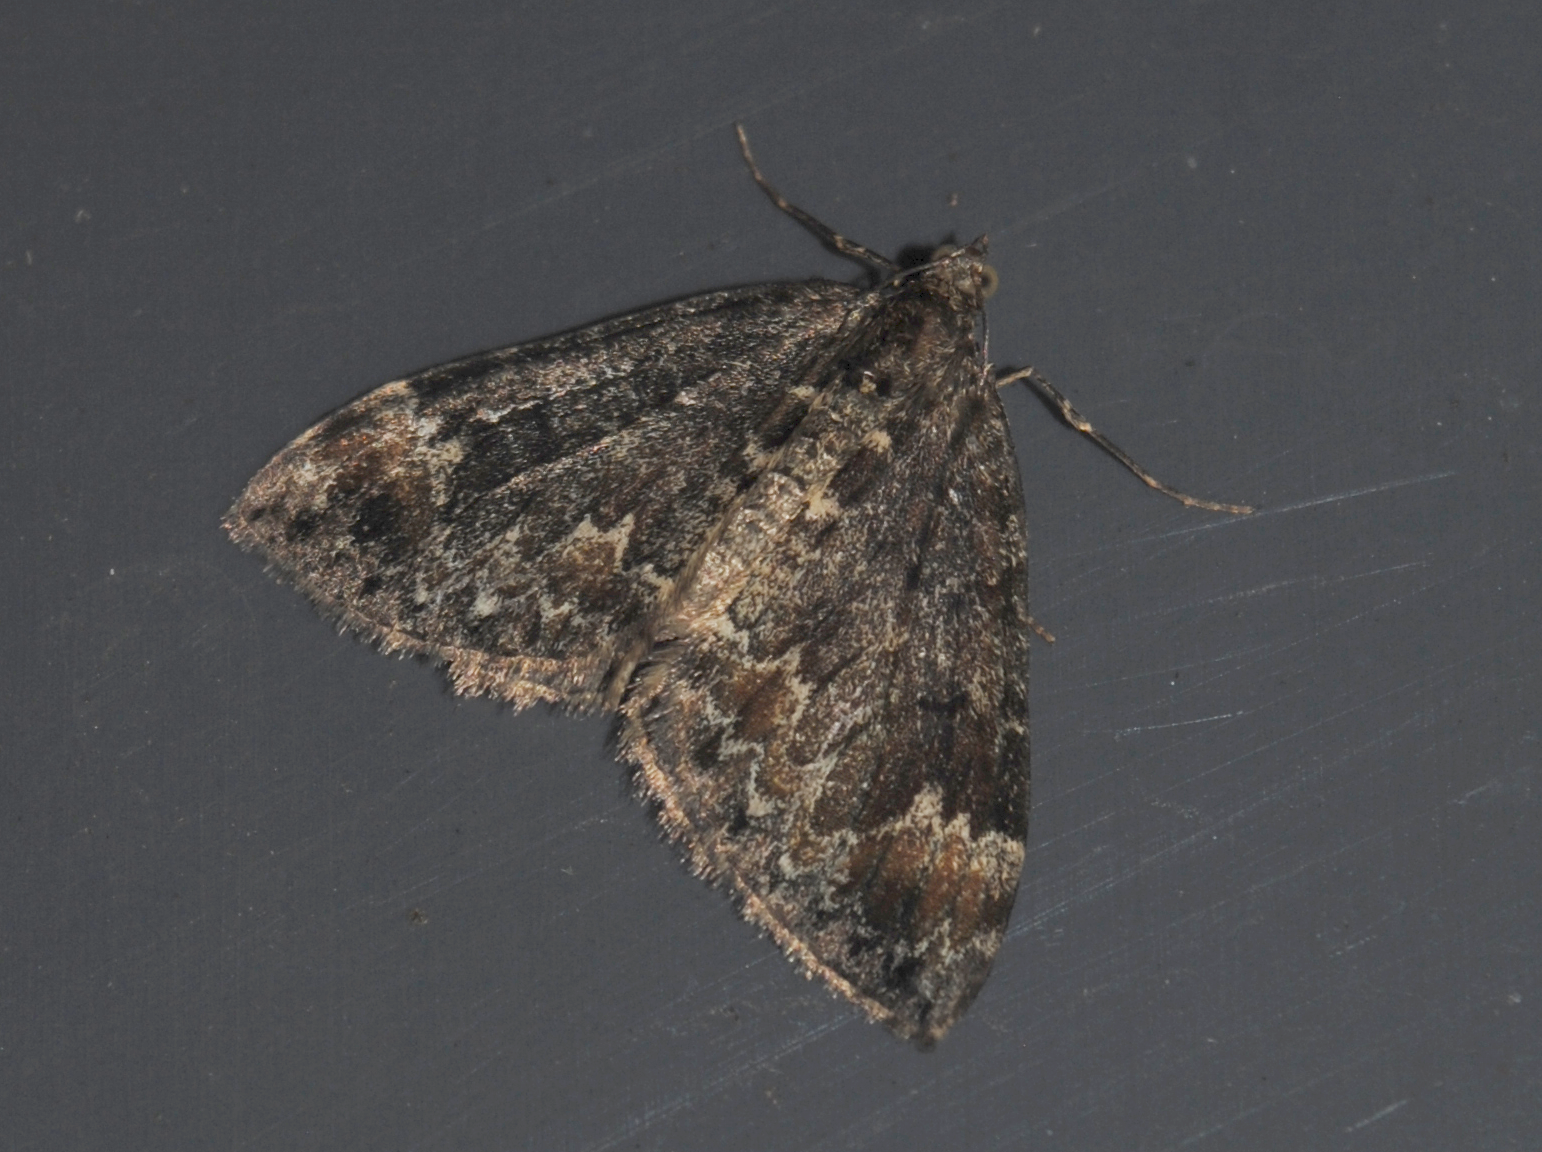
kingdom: Animalia
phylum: Arthropoda
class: Insecta
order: Lepidoptera
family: Geometridae
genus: Dysstroma
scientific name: Dysstroma truncata
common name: Common marbled carpet
